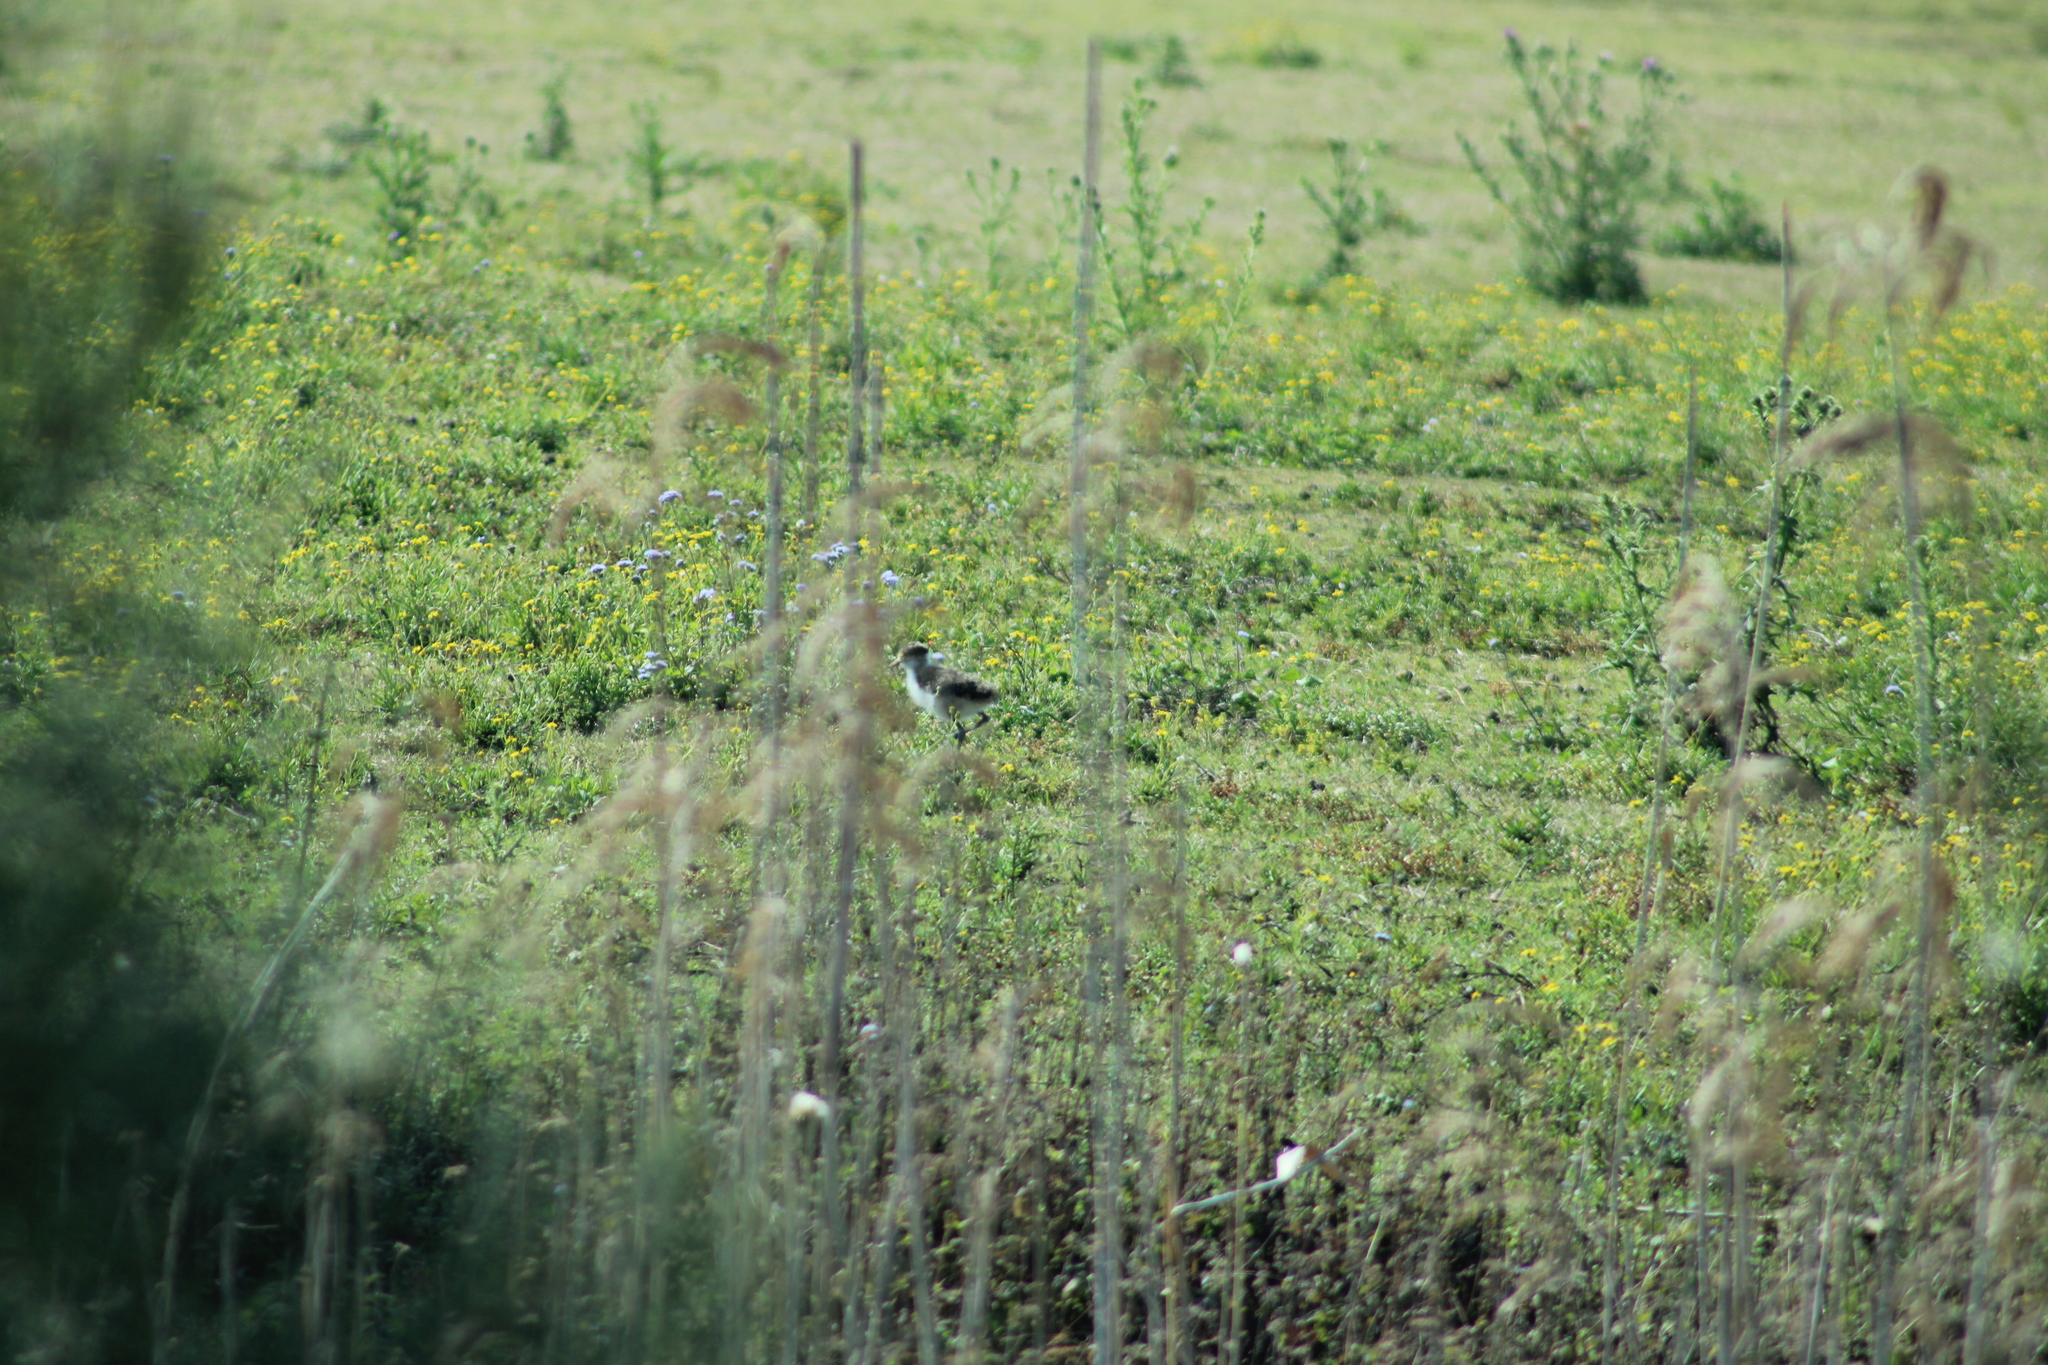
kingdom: Animalia
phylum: Chordata
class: Aves
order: Charadriiformes
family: Charadriidae
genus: Vanellus
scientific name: Vanellus miles
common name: Masked lapwing
